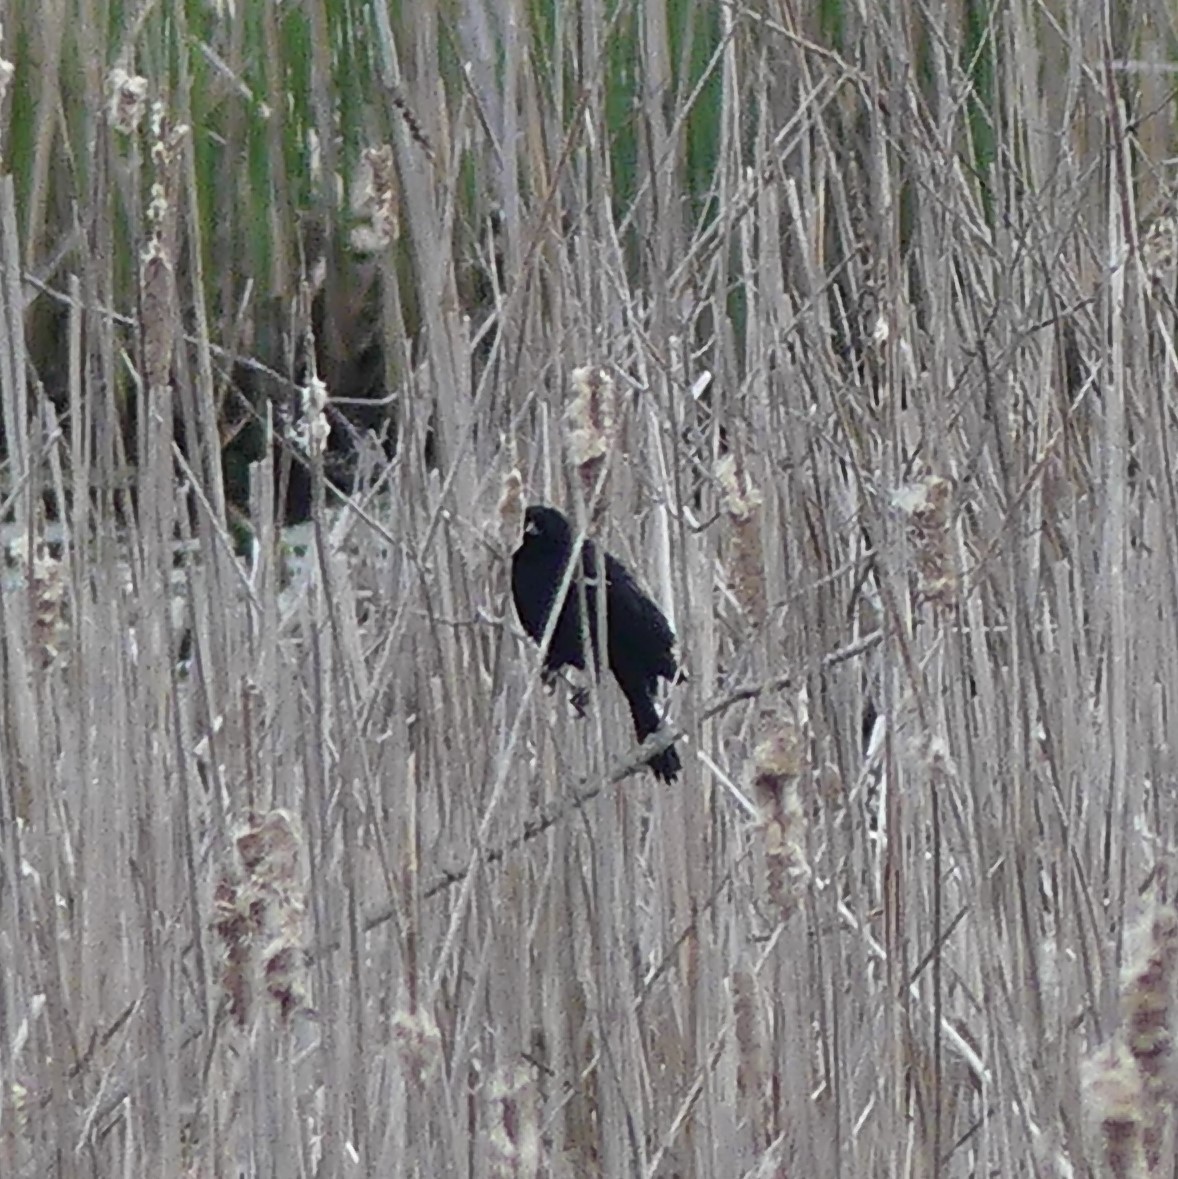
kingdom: Animalia
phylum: Chordata
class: Aves
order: Passeriformes
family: Icteridae
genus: Agelaius
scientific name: Agelaius phoeniceus
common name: Red-winged blackbird
